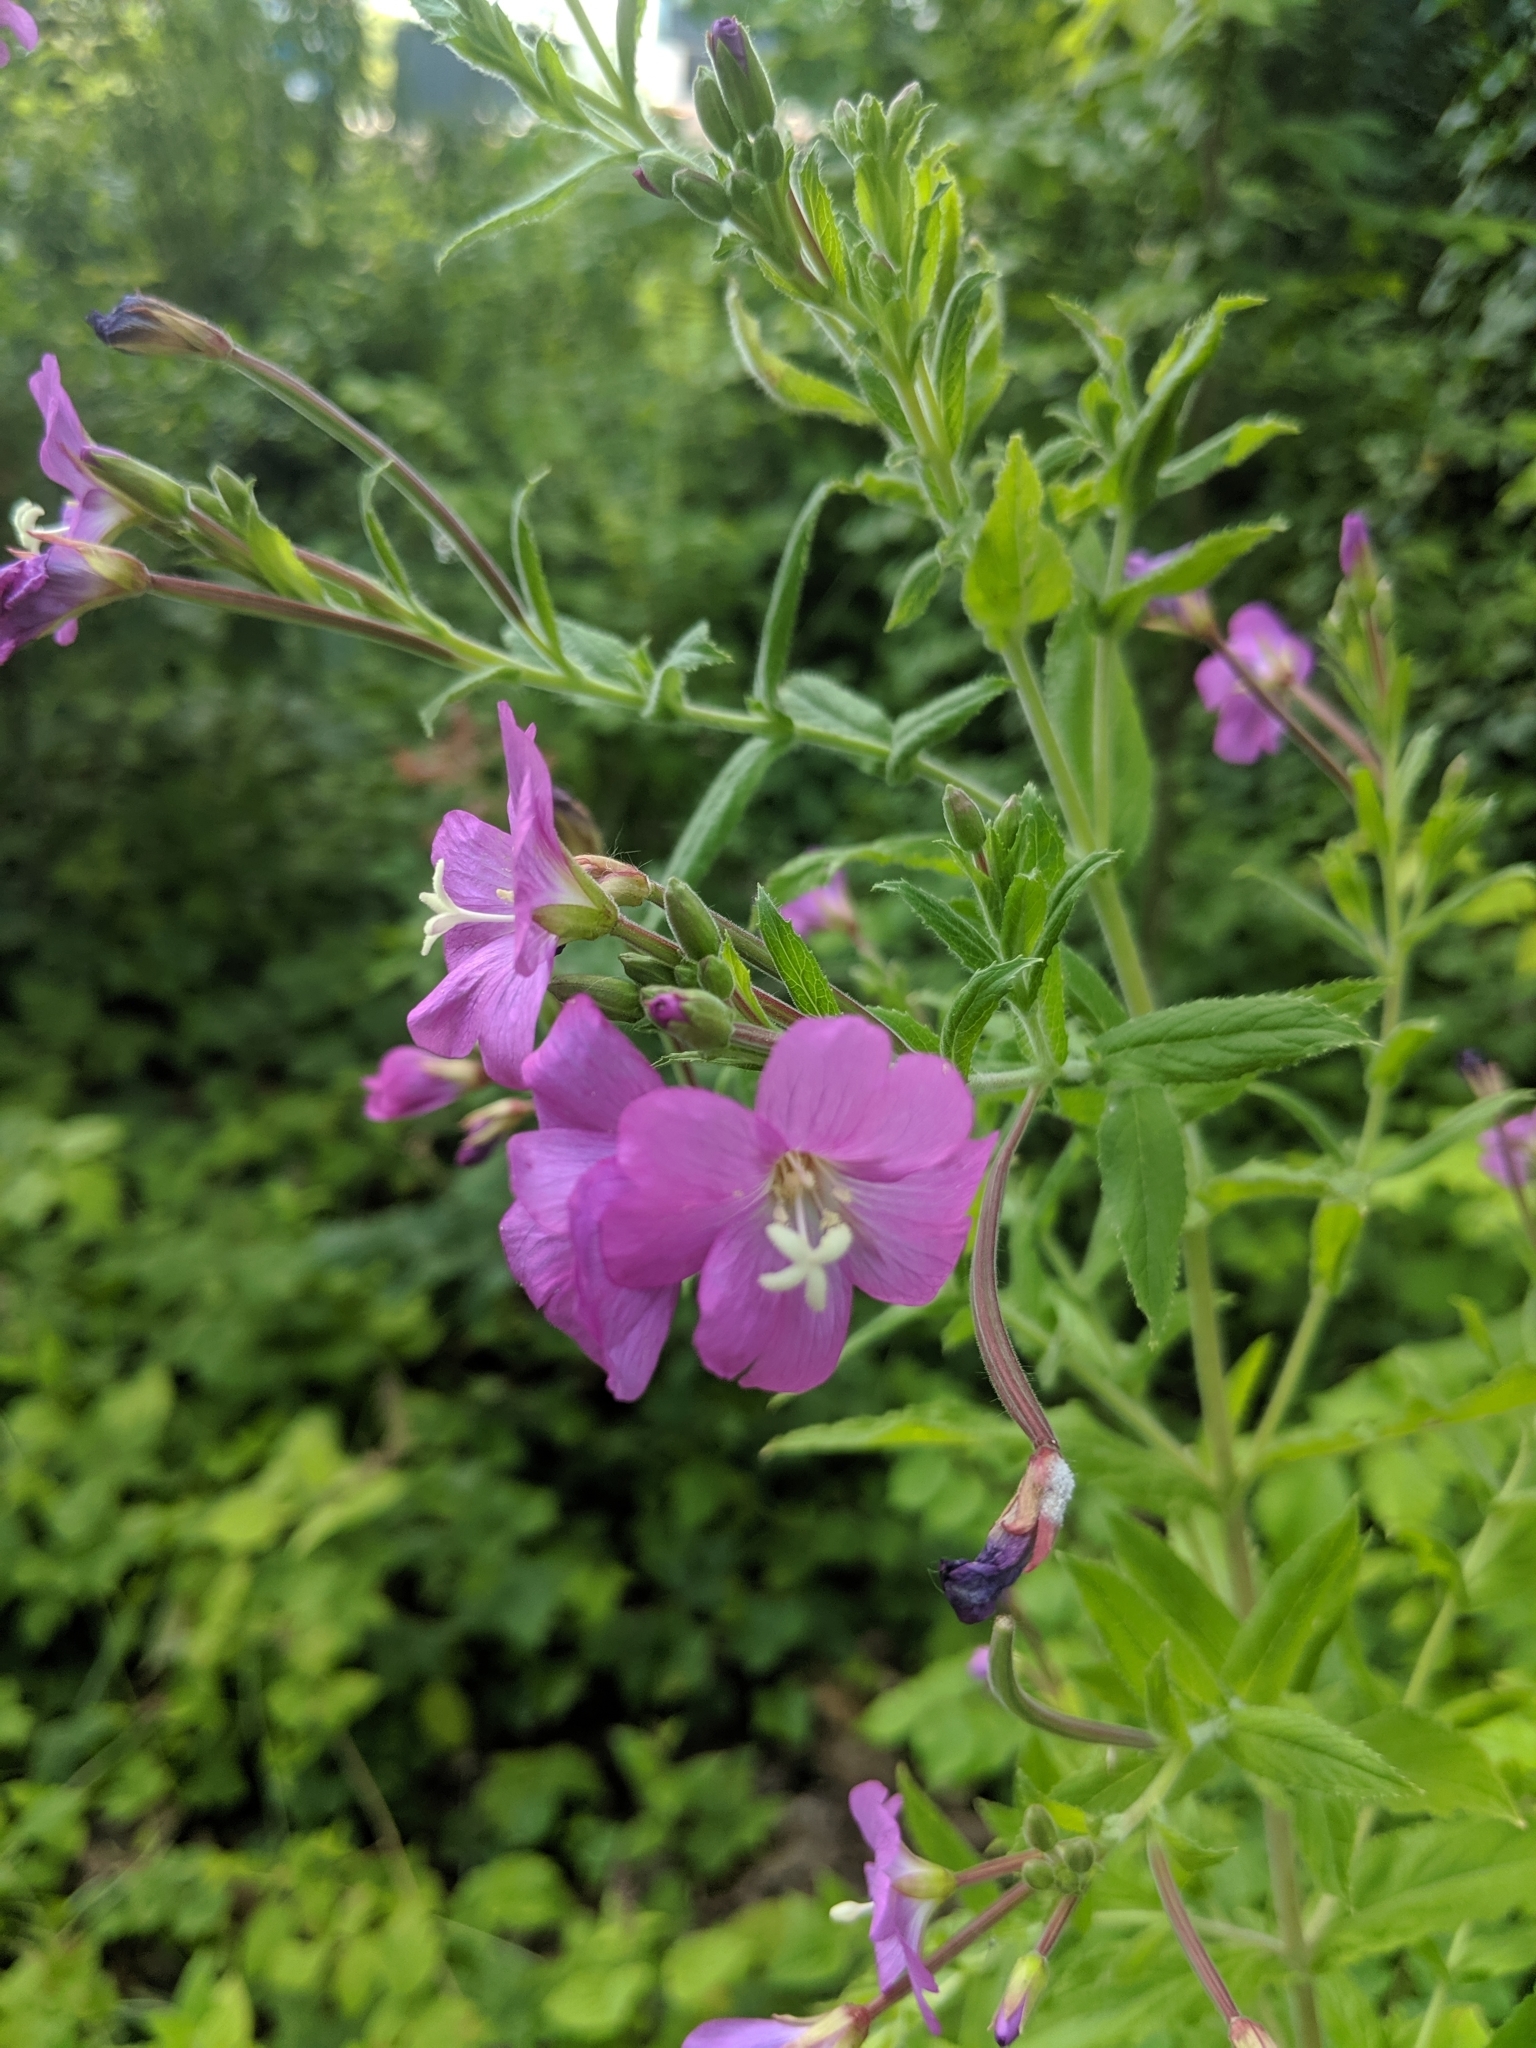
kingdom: Plantae
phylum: Tracheophyta
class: Magnoliopsida
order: Myrtales
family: Onagraceae
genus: Epilobium
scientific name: Epilobium hirsutum
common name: Great willowherb
